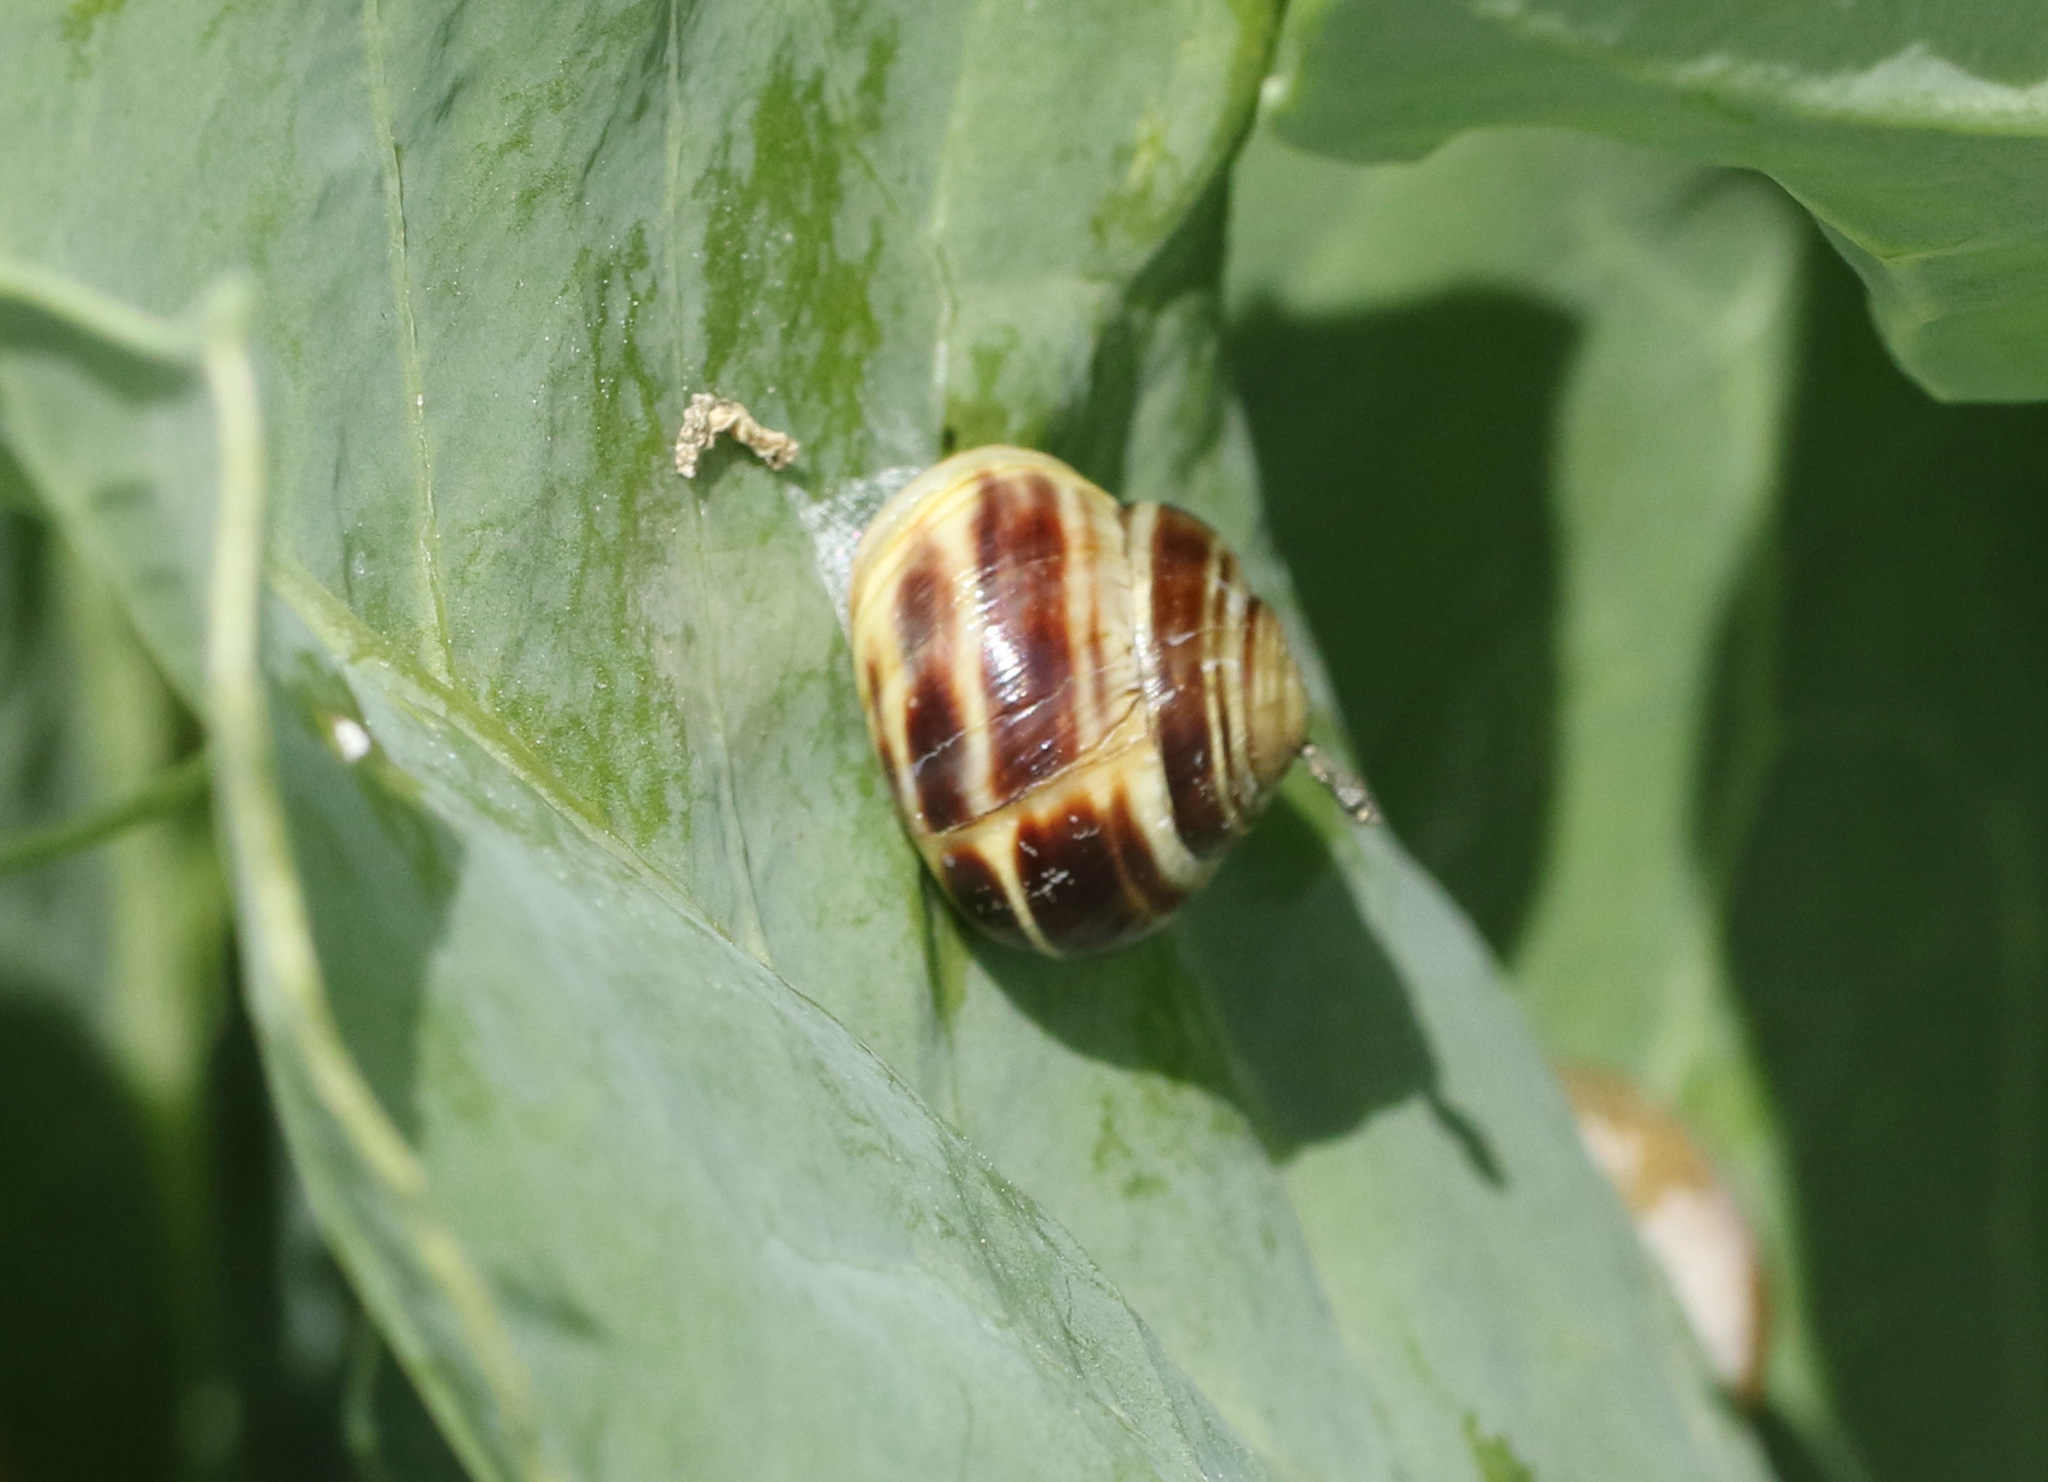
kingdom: Animalia
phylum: Mollusca
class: Gastropoda
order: Stylommatophora
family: Helicidae
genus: Cepaea
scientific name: Cepaea hortensis
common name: White-lip gardensnail
